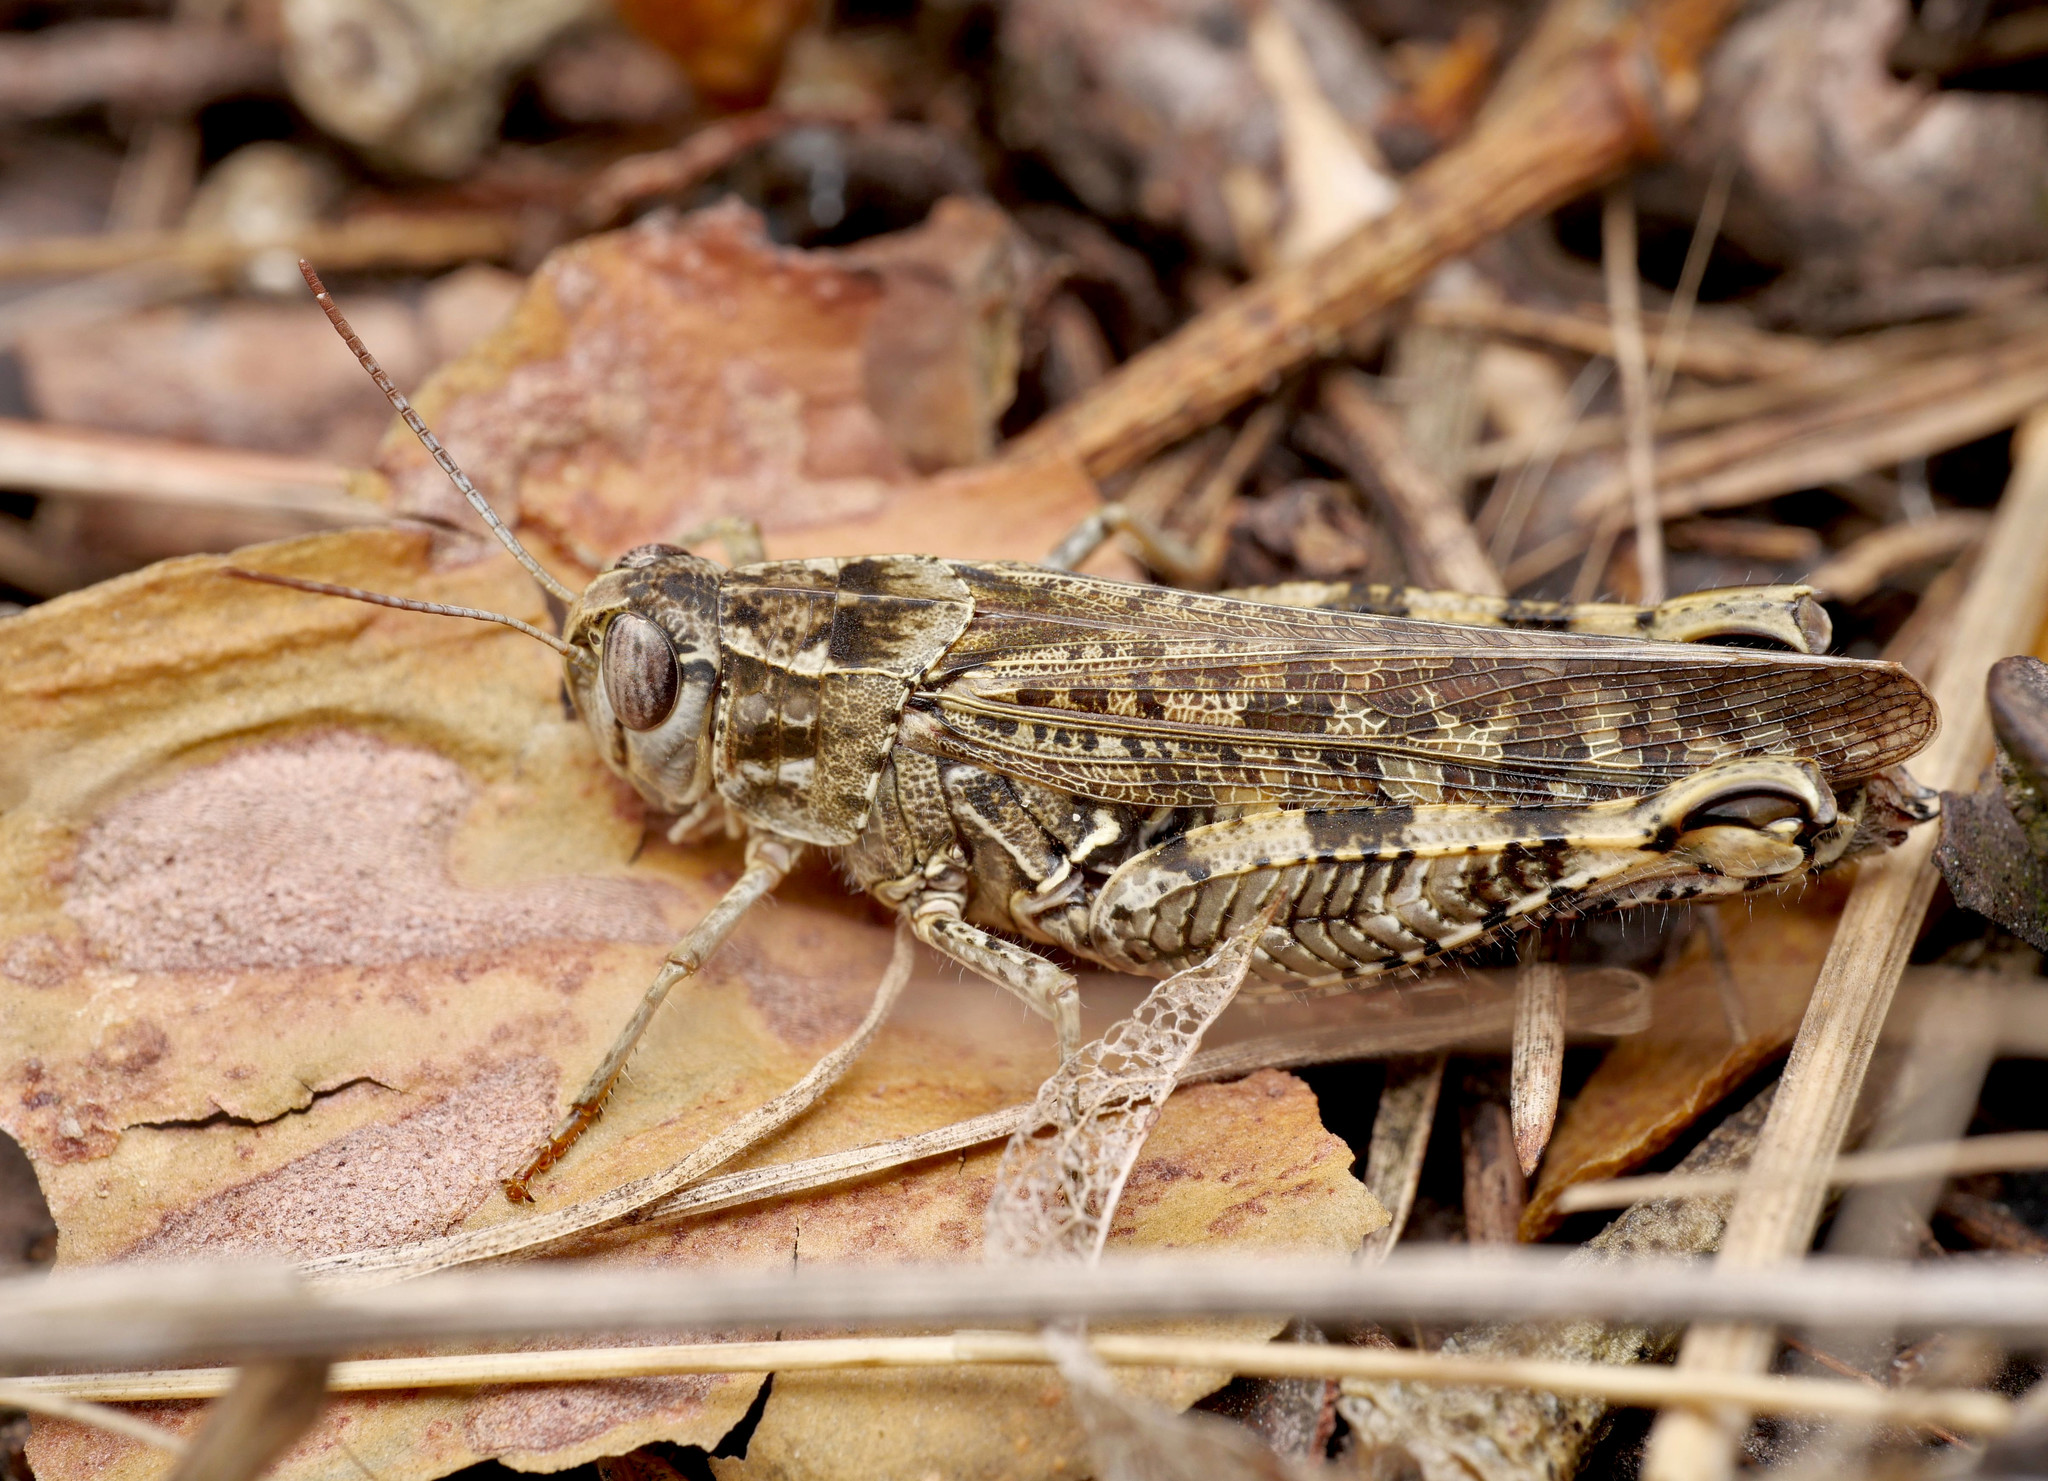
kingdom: Animalia
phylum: Arthropoda
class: Insecta
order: Orthoptera
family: Acrididae
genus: Calliptamus
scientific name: Calliptamus italicus
